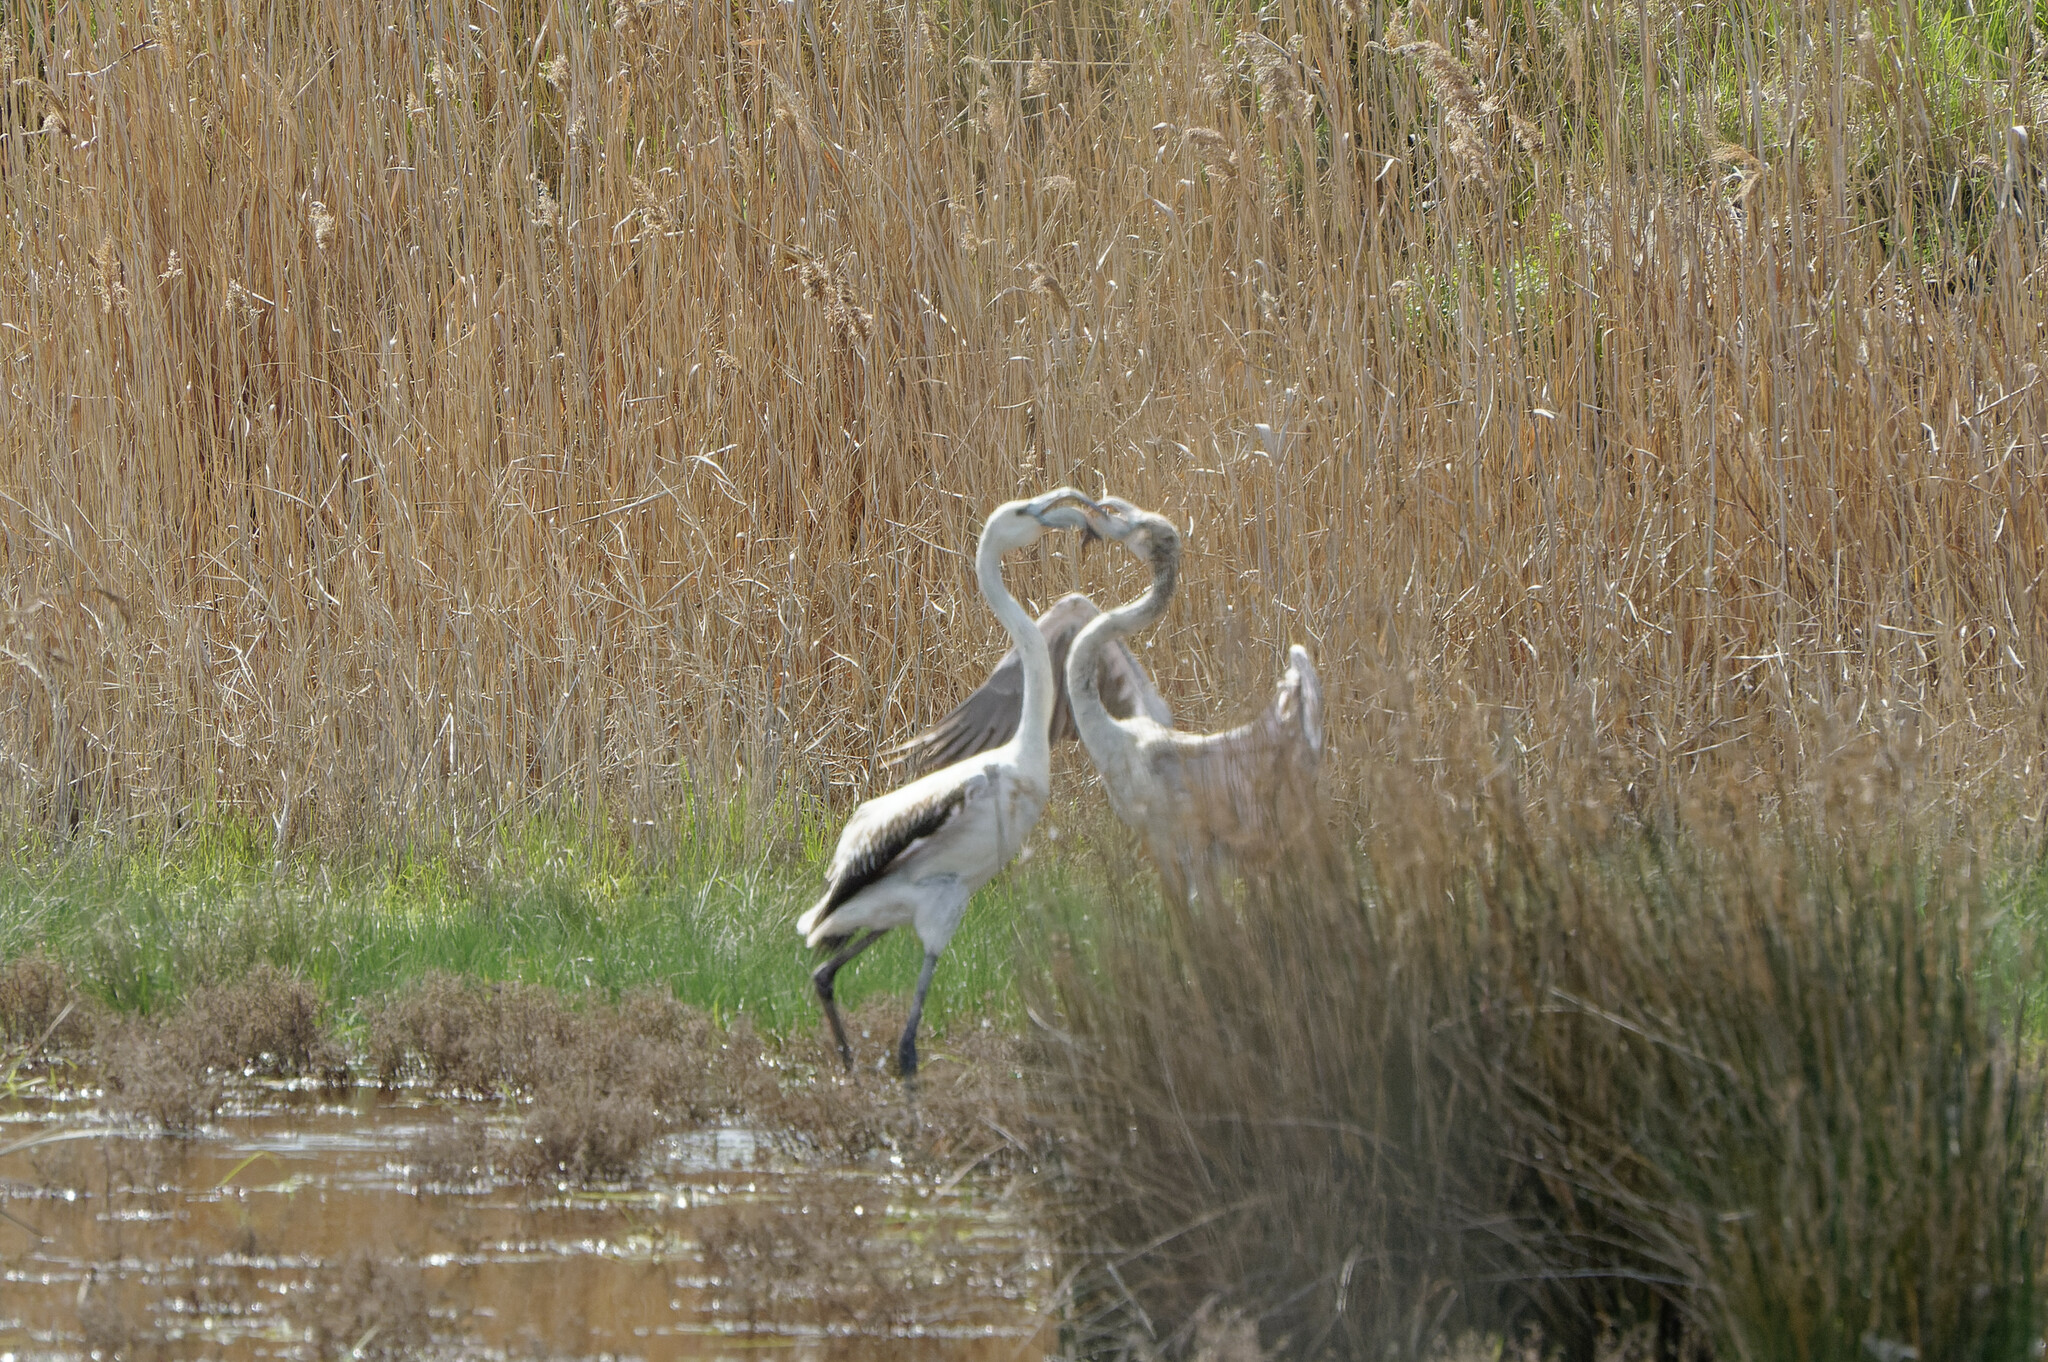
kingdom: Animalia
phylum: Chordata
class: Aves
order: Phoenicopteriformes
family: Phoenicopteridae
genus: Phoenicopterus
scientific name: Phoenicopterus roseus
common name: Greater flamingo
